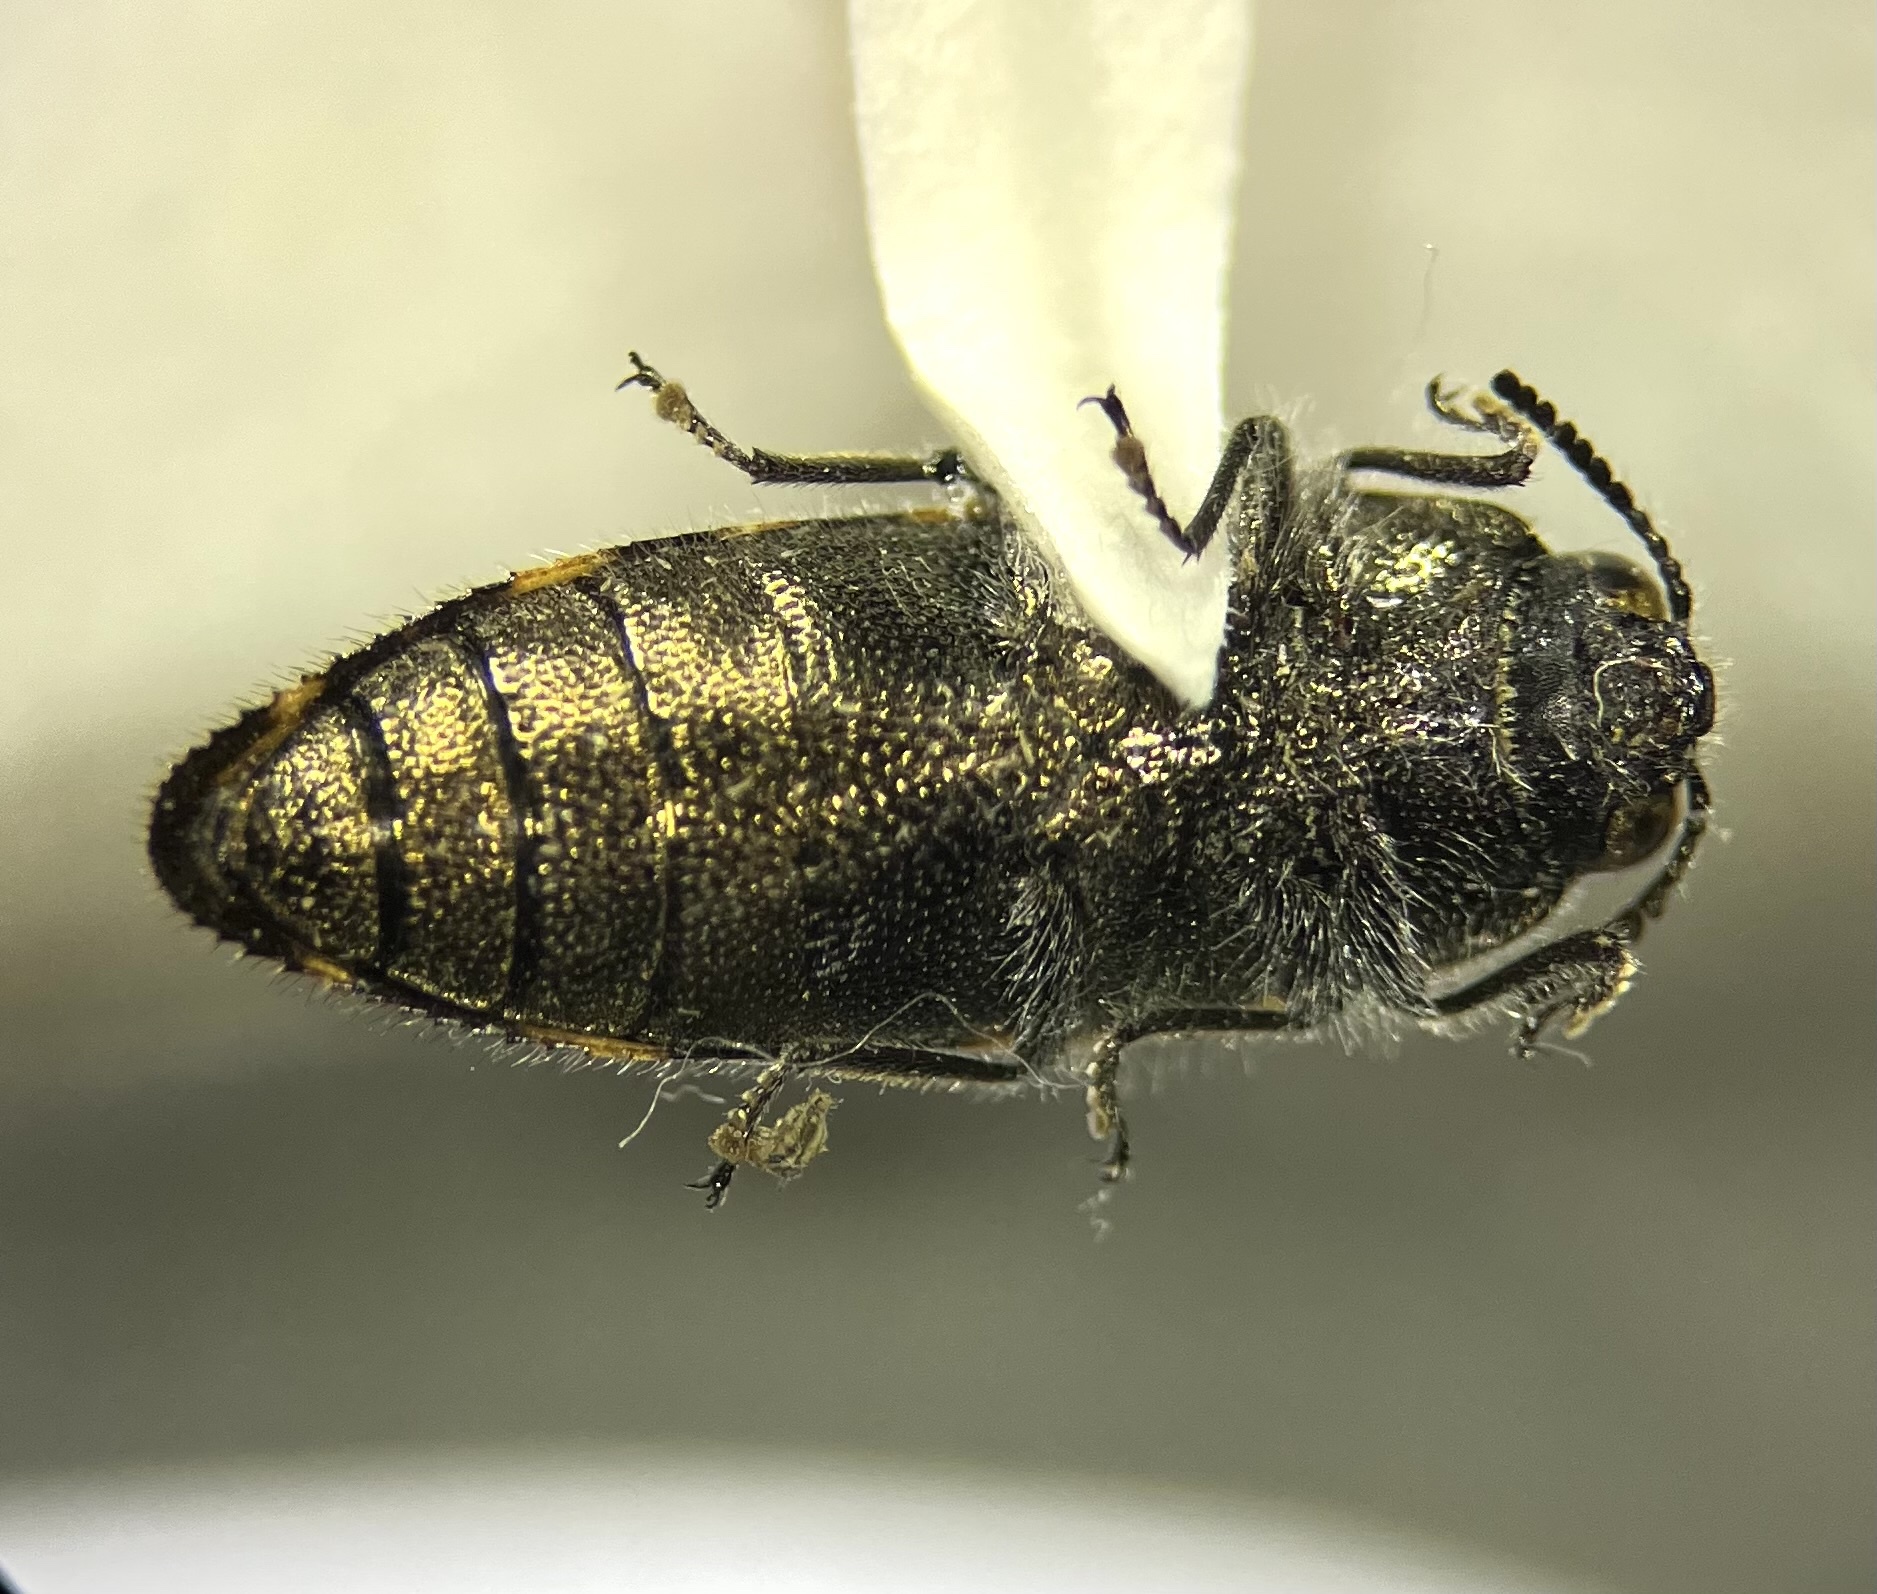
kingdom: Animalia
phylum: Arthropoda
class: Insecta
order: Coleoptera
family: Buprestidae
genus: Acmaeodera
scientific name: Acmaeodera pulchella
